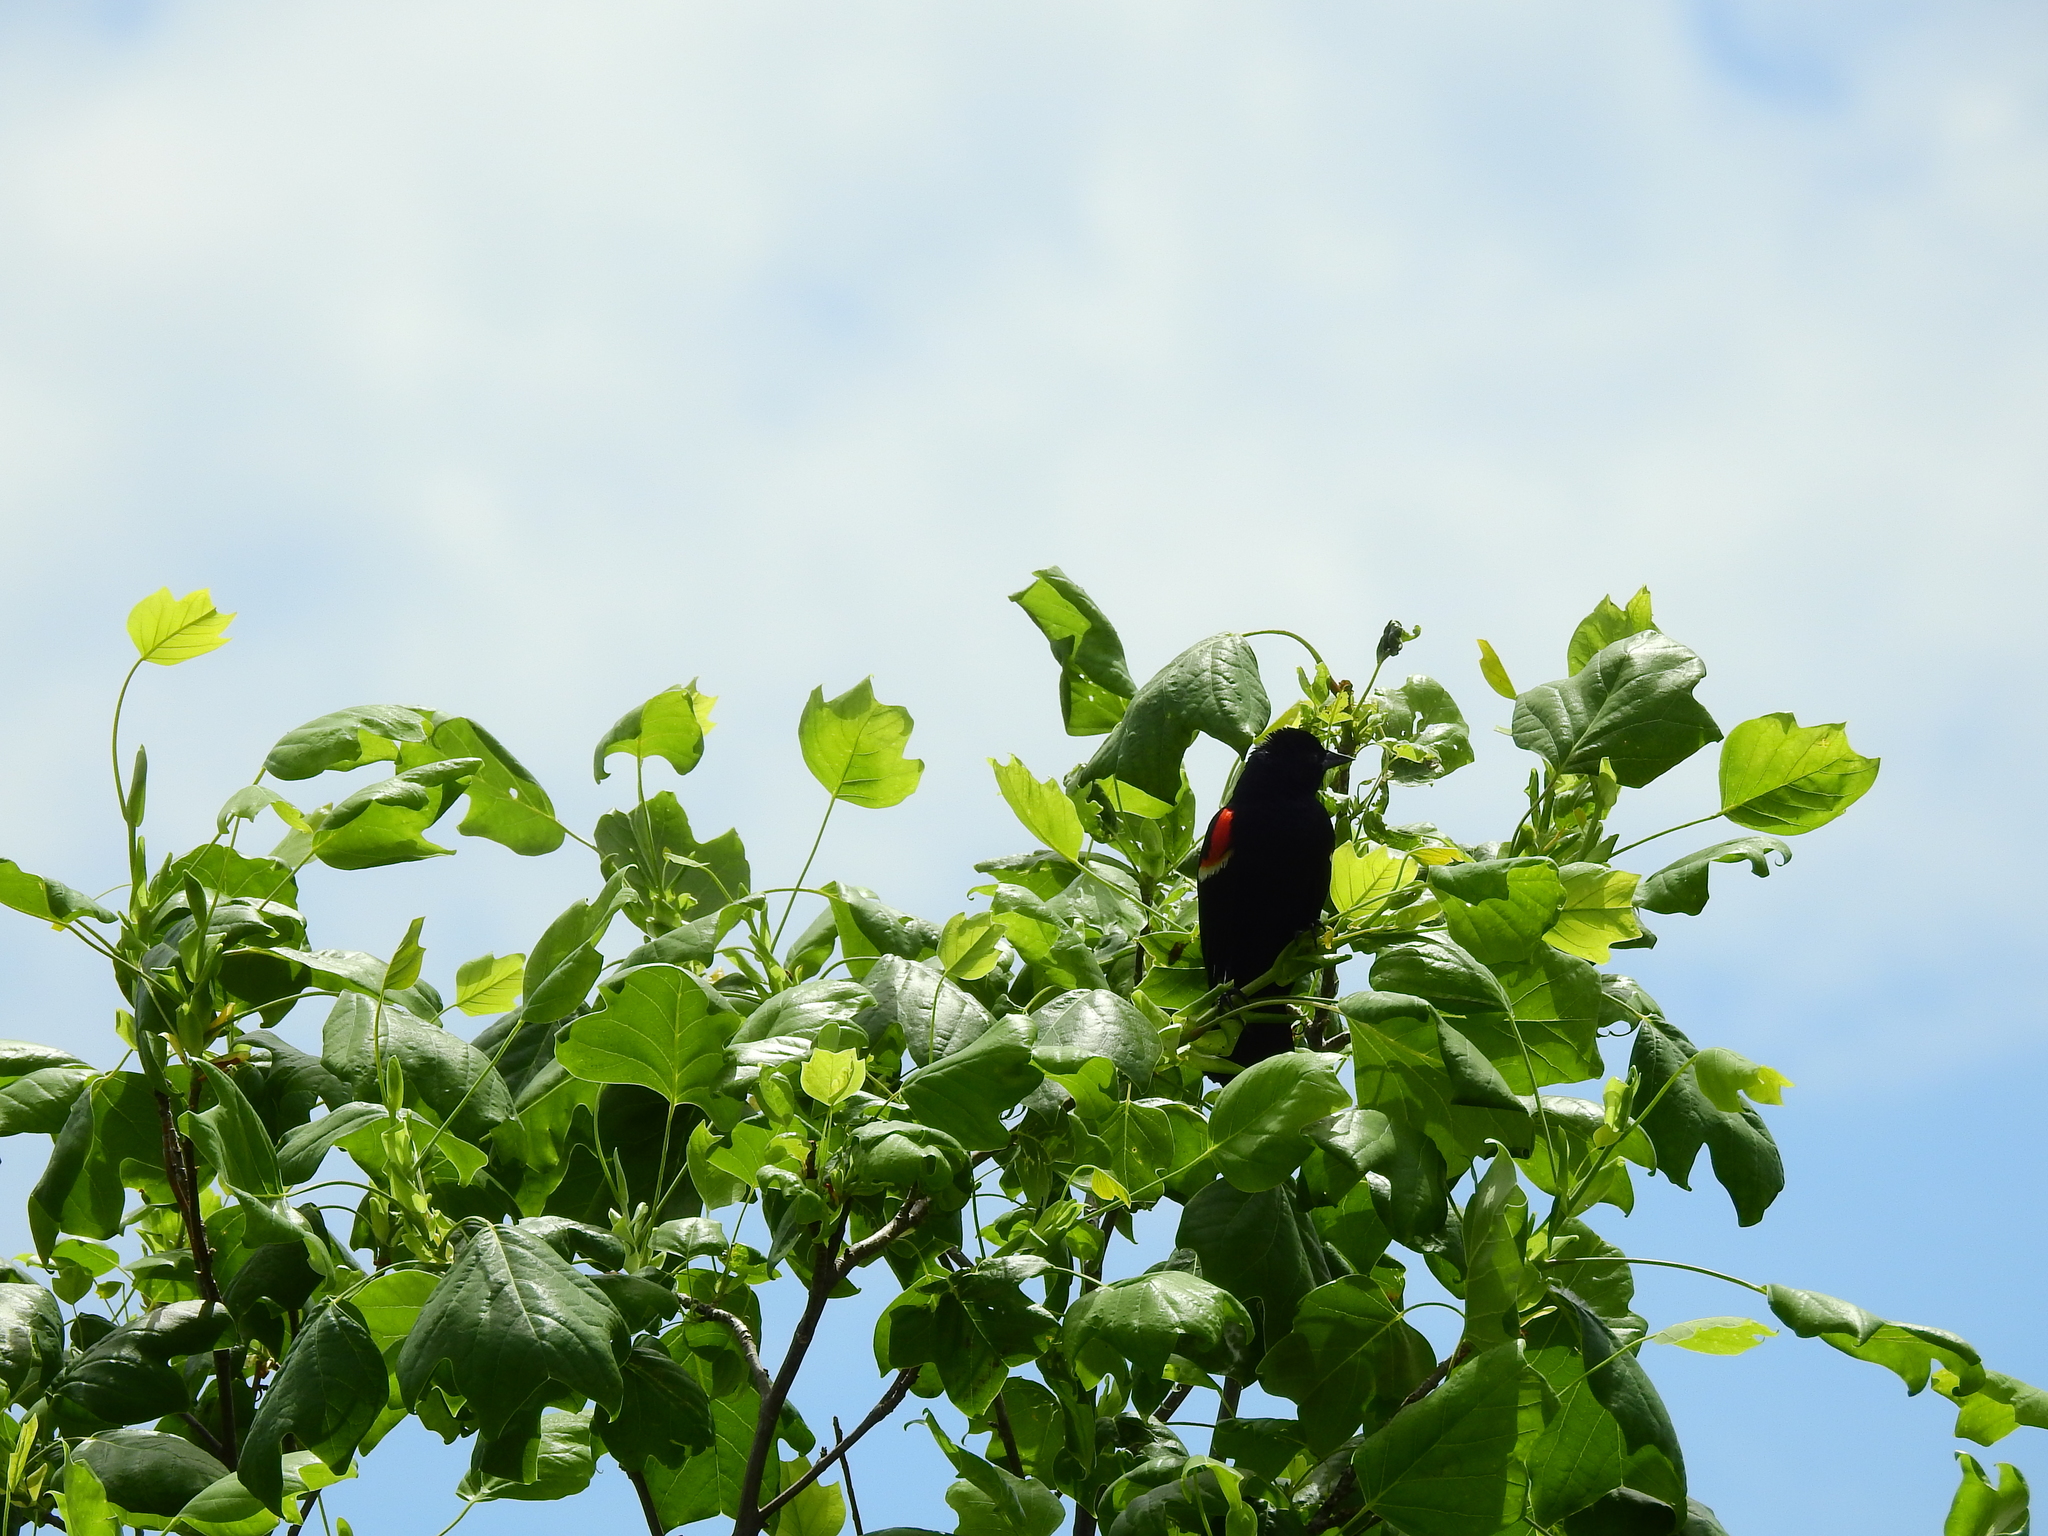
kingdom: Animalia
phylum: Chordata
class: Aves
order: Passeriformes
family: Icteridae
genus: Agelaius
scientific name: Agelaius phoeniceus
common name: Red-winged blackbird
